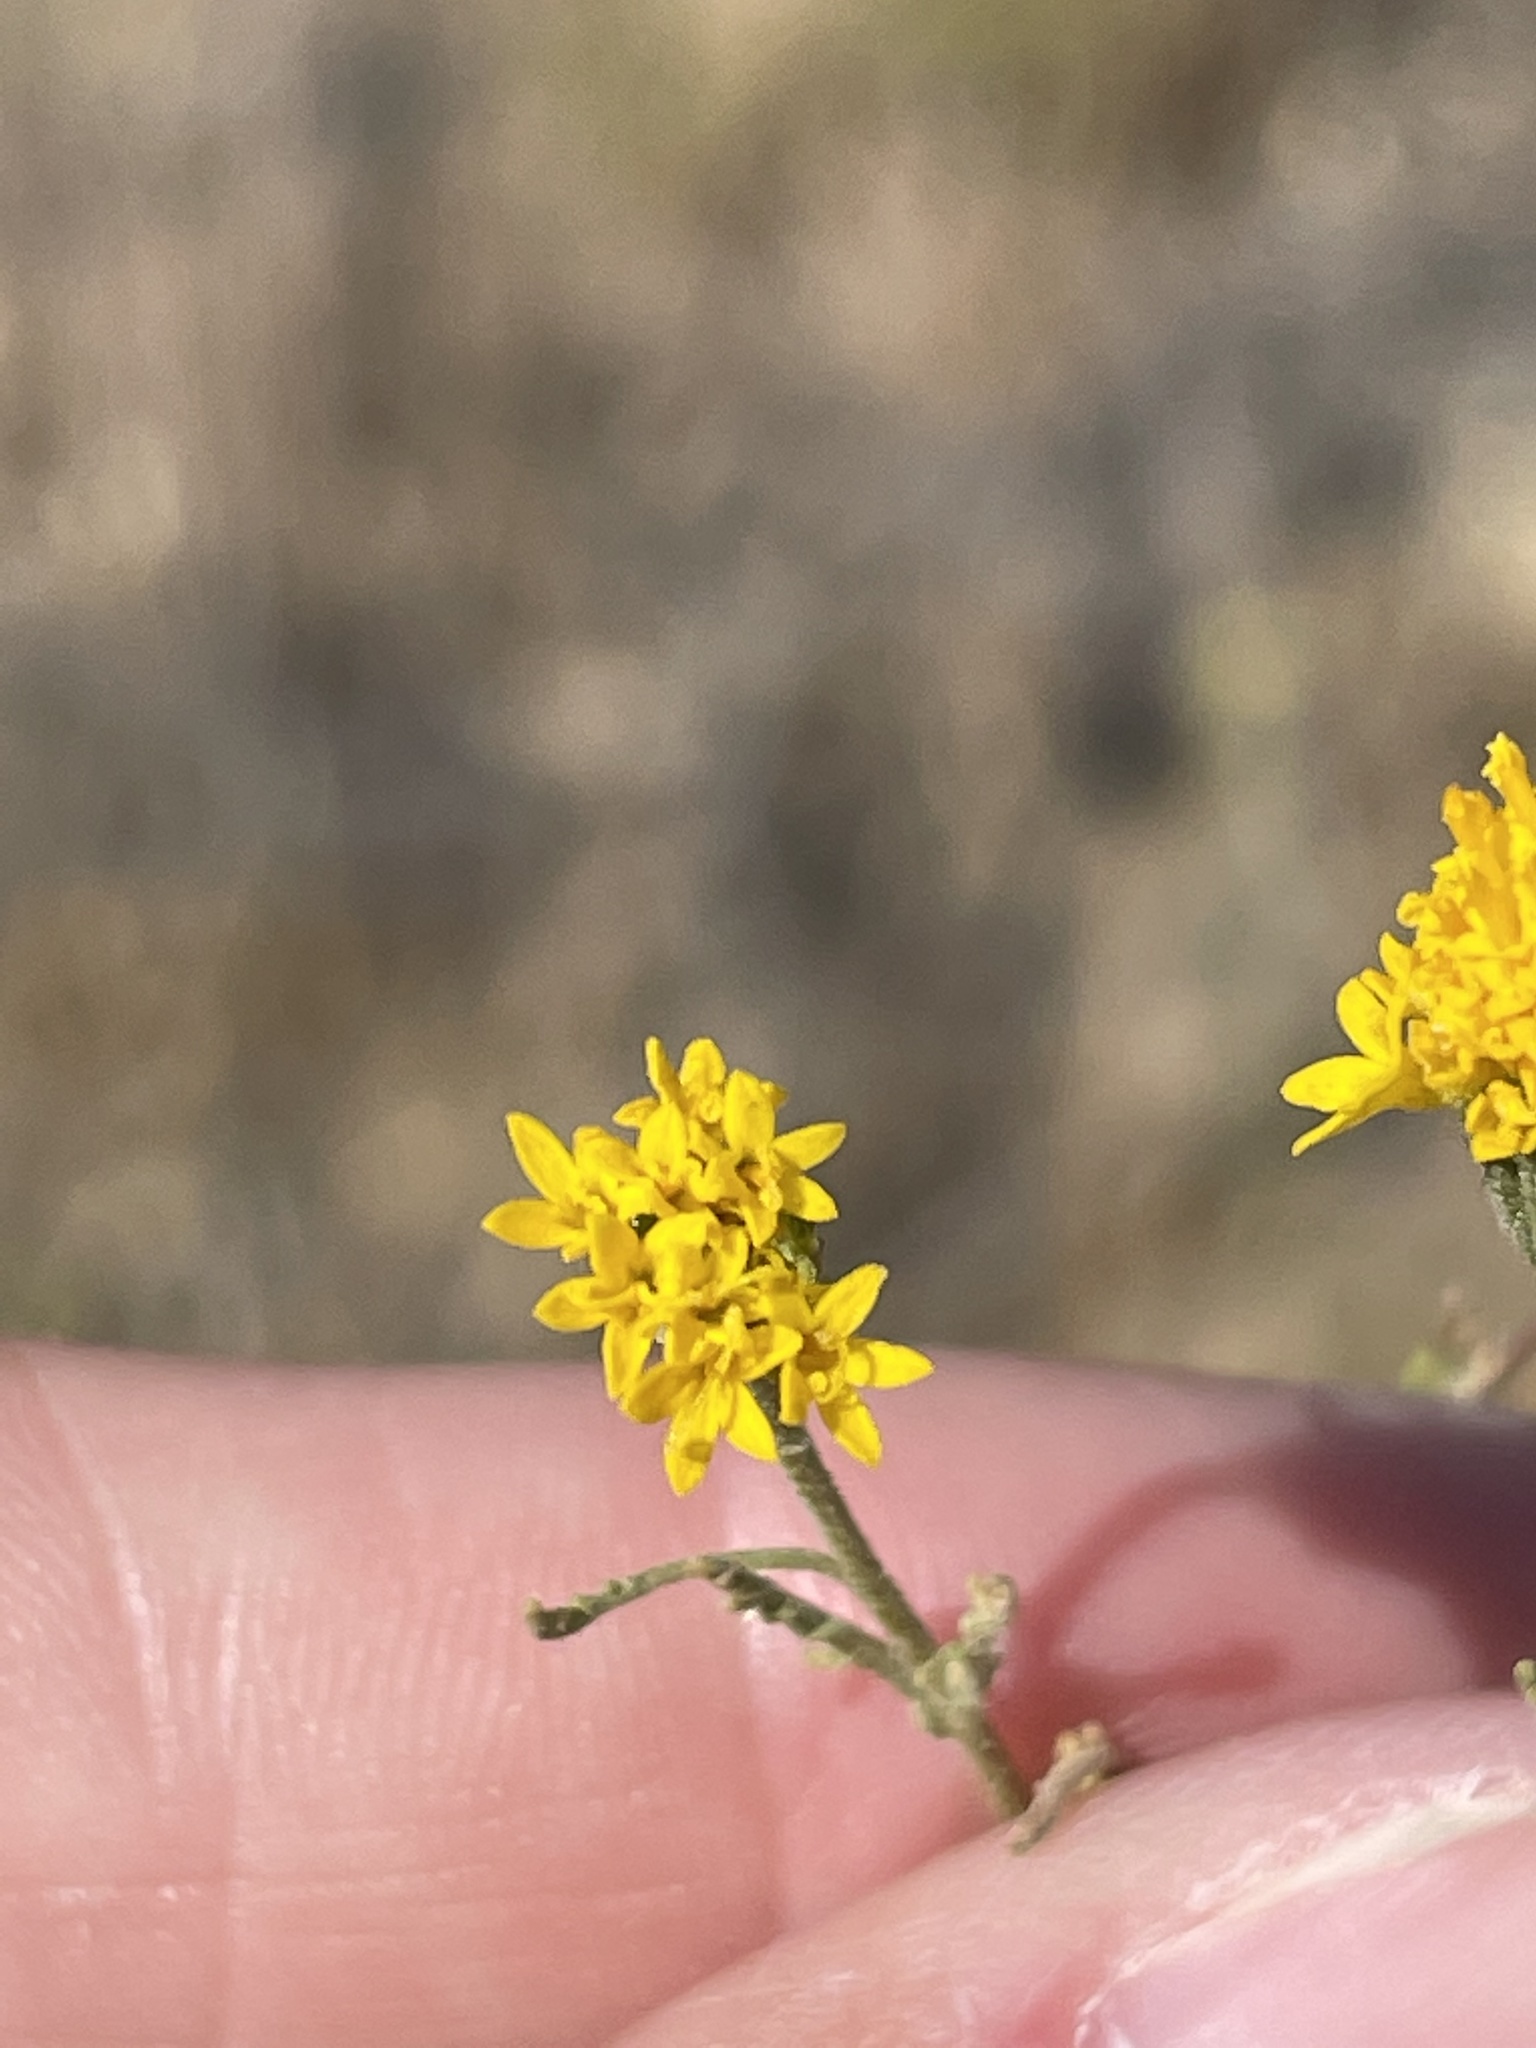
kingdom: Plantae
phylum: Tracheophyta
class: Magnoliopsida
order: Asterales
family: Asteraceae
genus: Chaenactis
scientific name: Chaenactis glabriuscula
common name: Yellow pincushion
